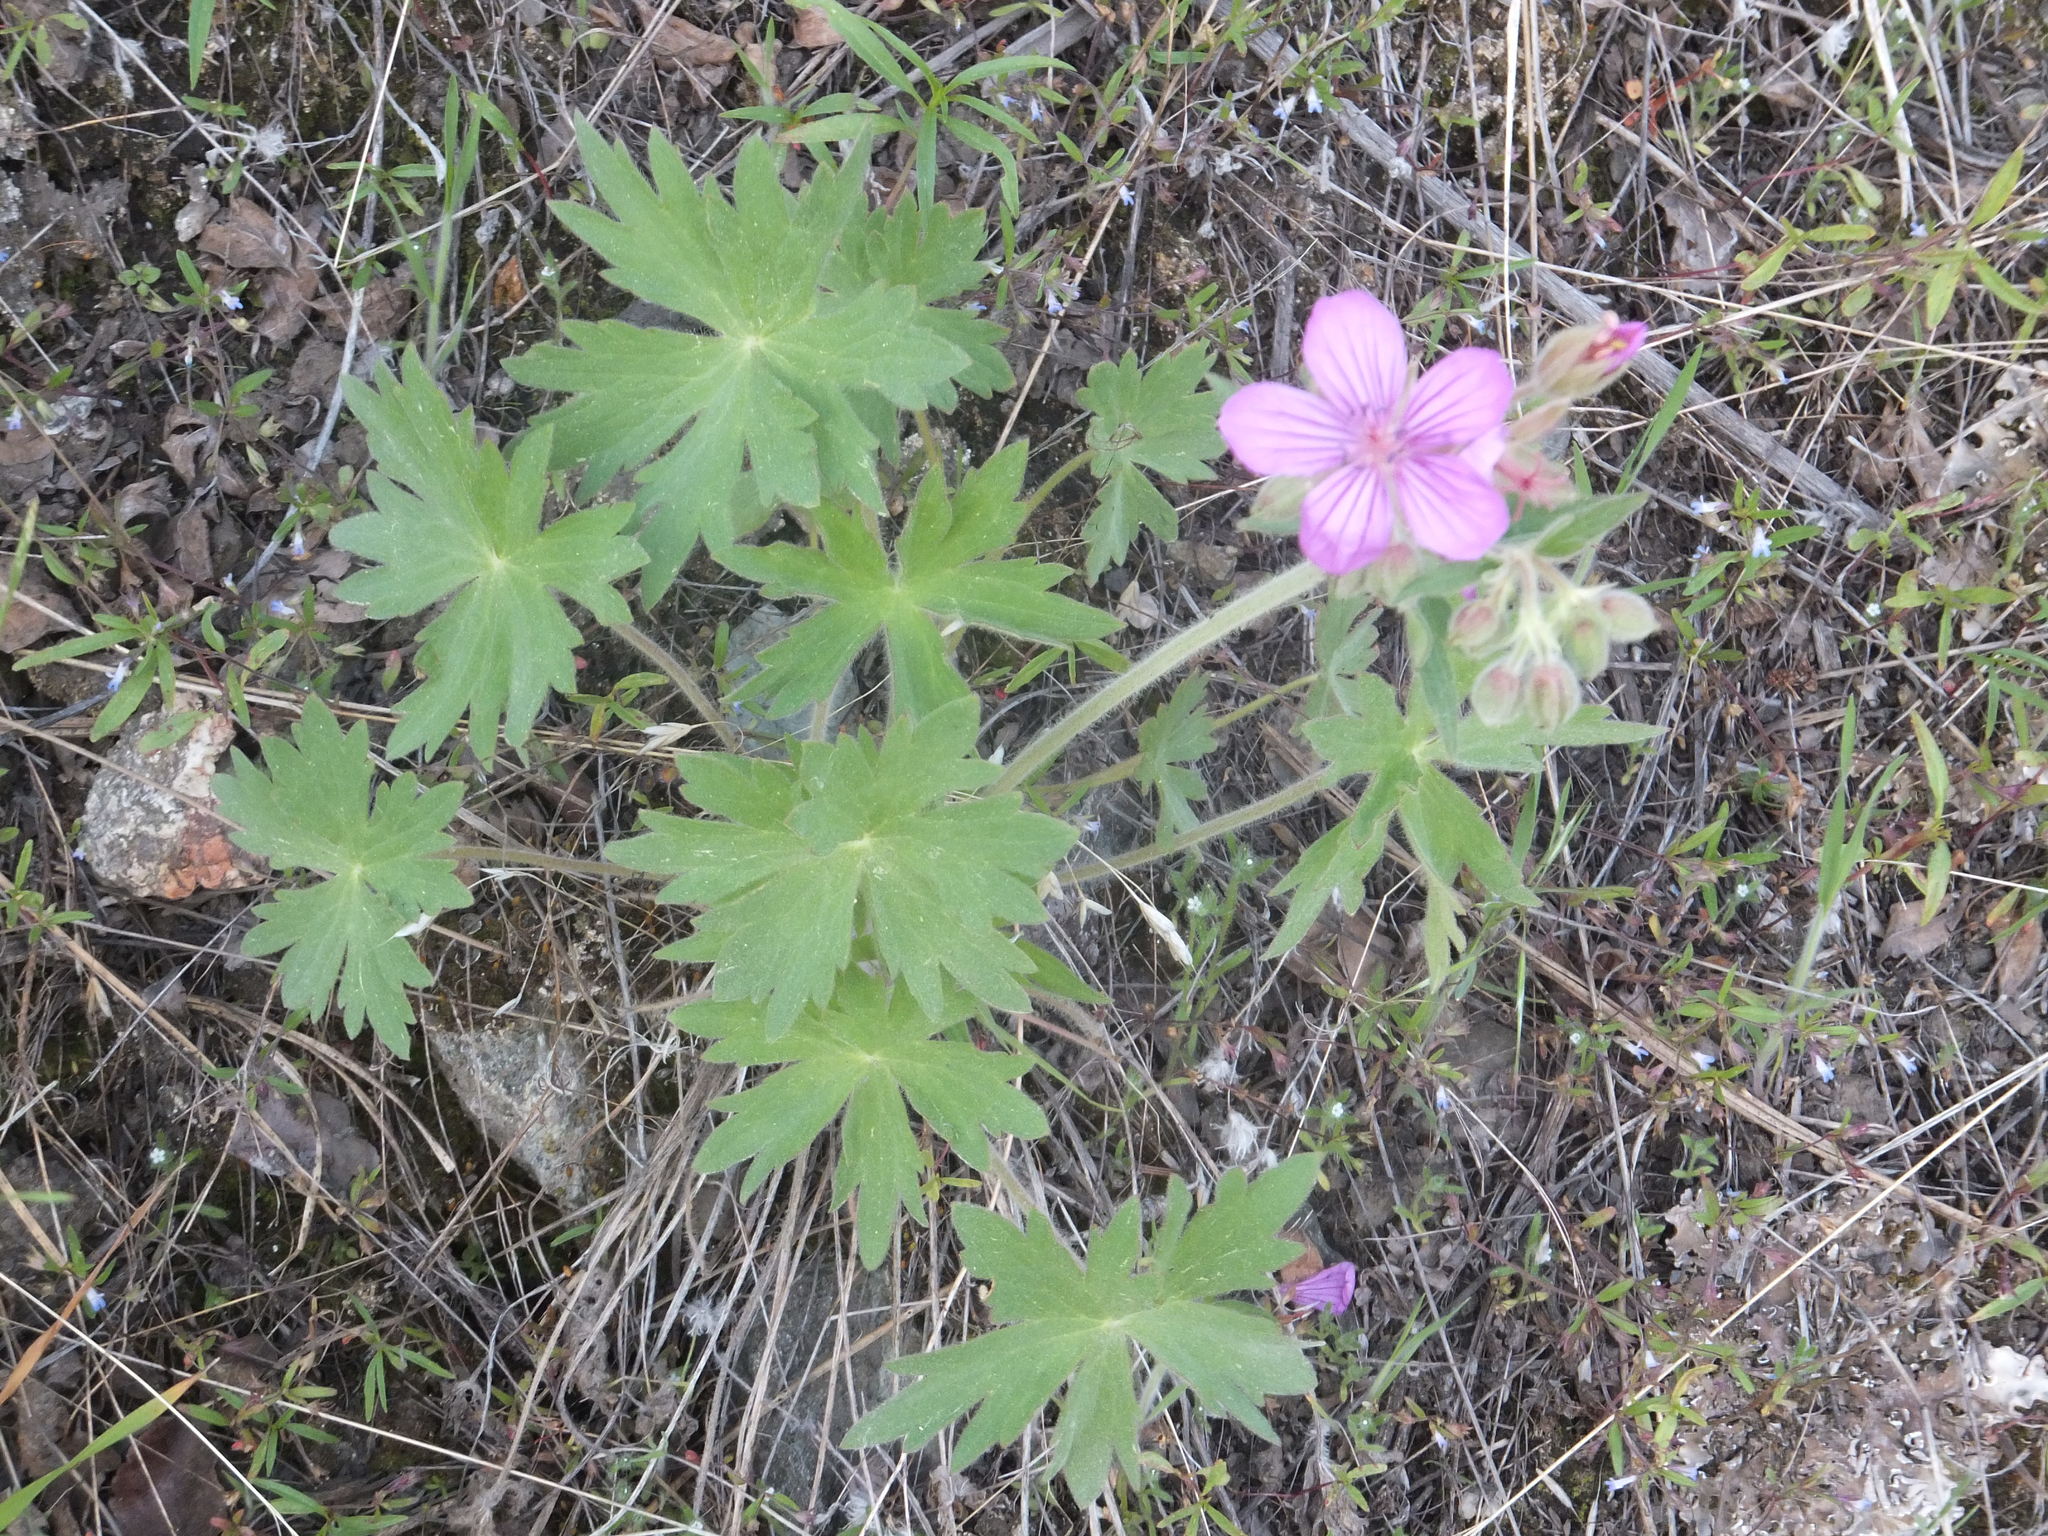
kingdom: Plantae
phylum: Tracheophyta
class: Magnoliopsida
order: Geraniales
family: Geraniaceae
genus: Geranium
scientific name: Geranium viscosissimum
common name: Purple geranium
